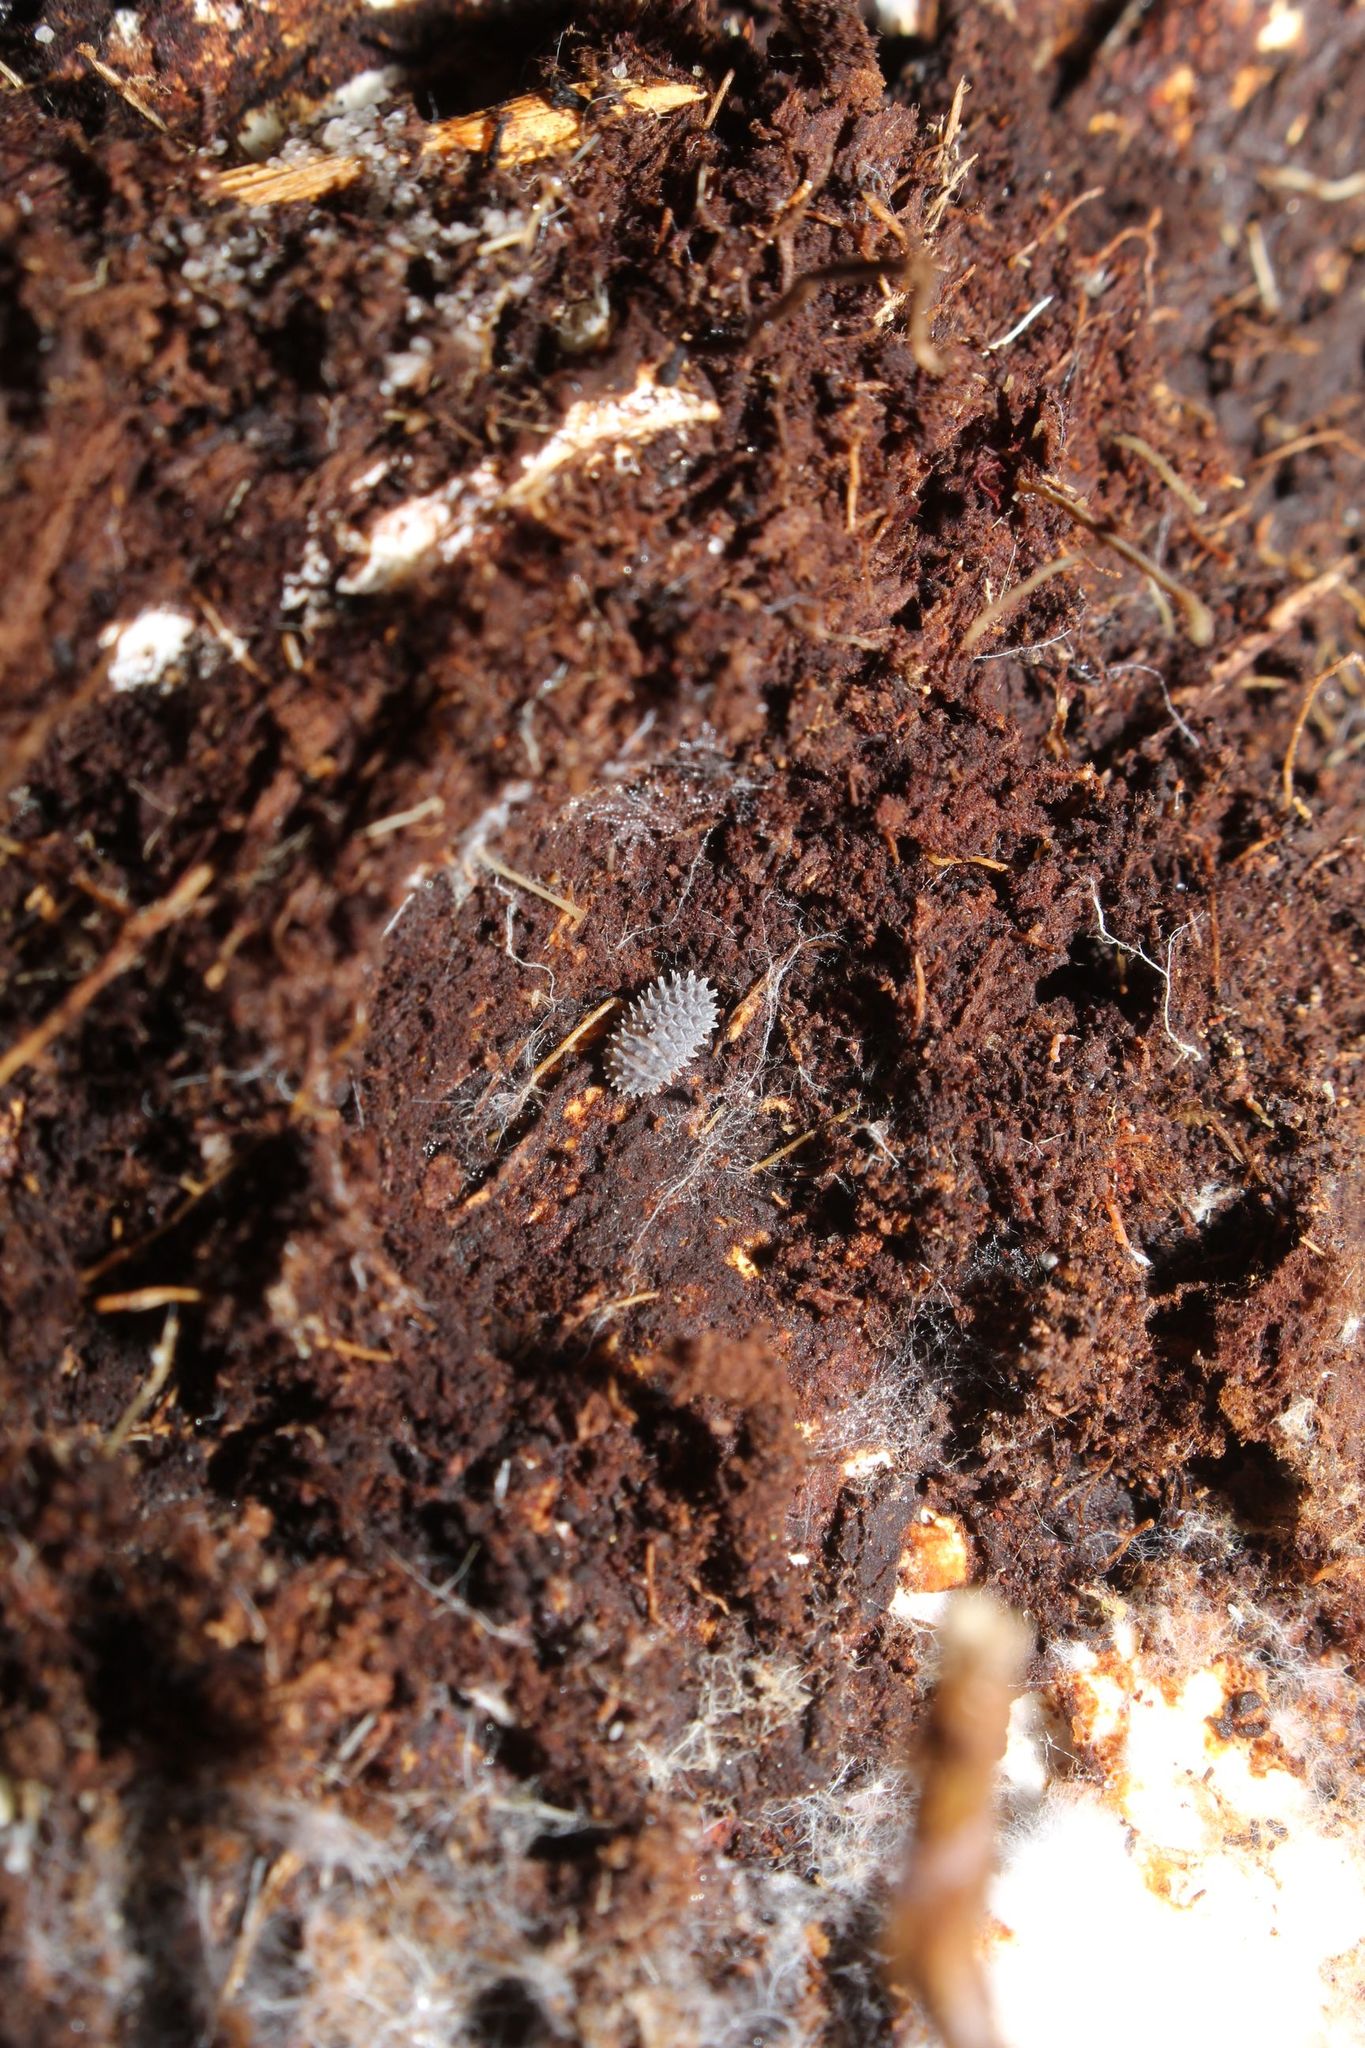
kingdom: Animalia
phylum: Arthropoda
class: Malacostraca
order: Isopoda
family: Armadillidae
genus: Pseudolaureola
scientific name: Pseudolaureola wilsmorei
